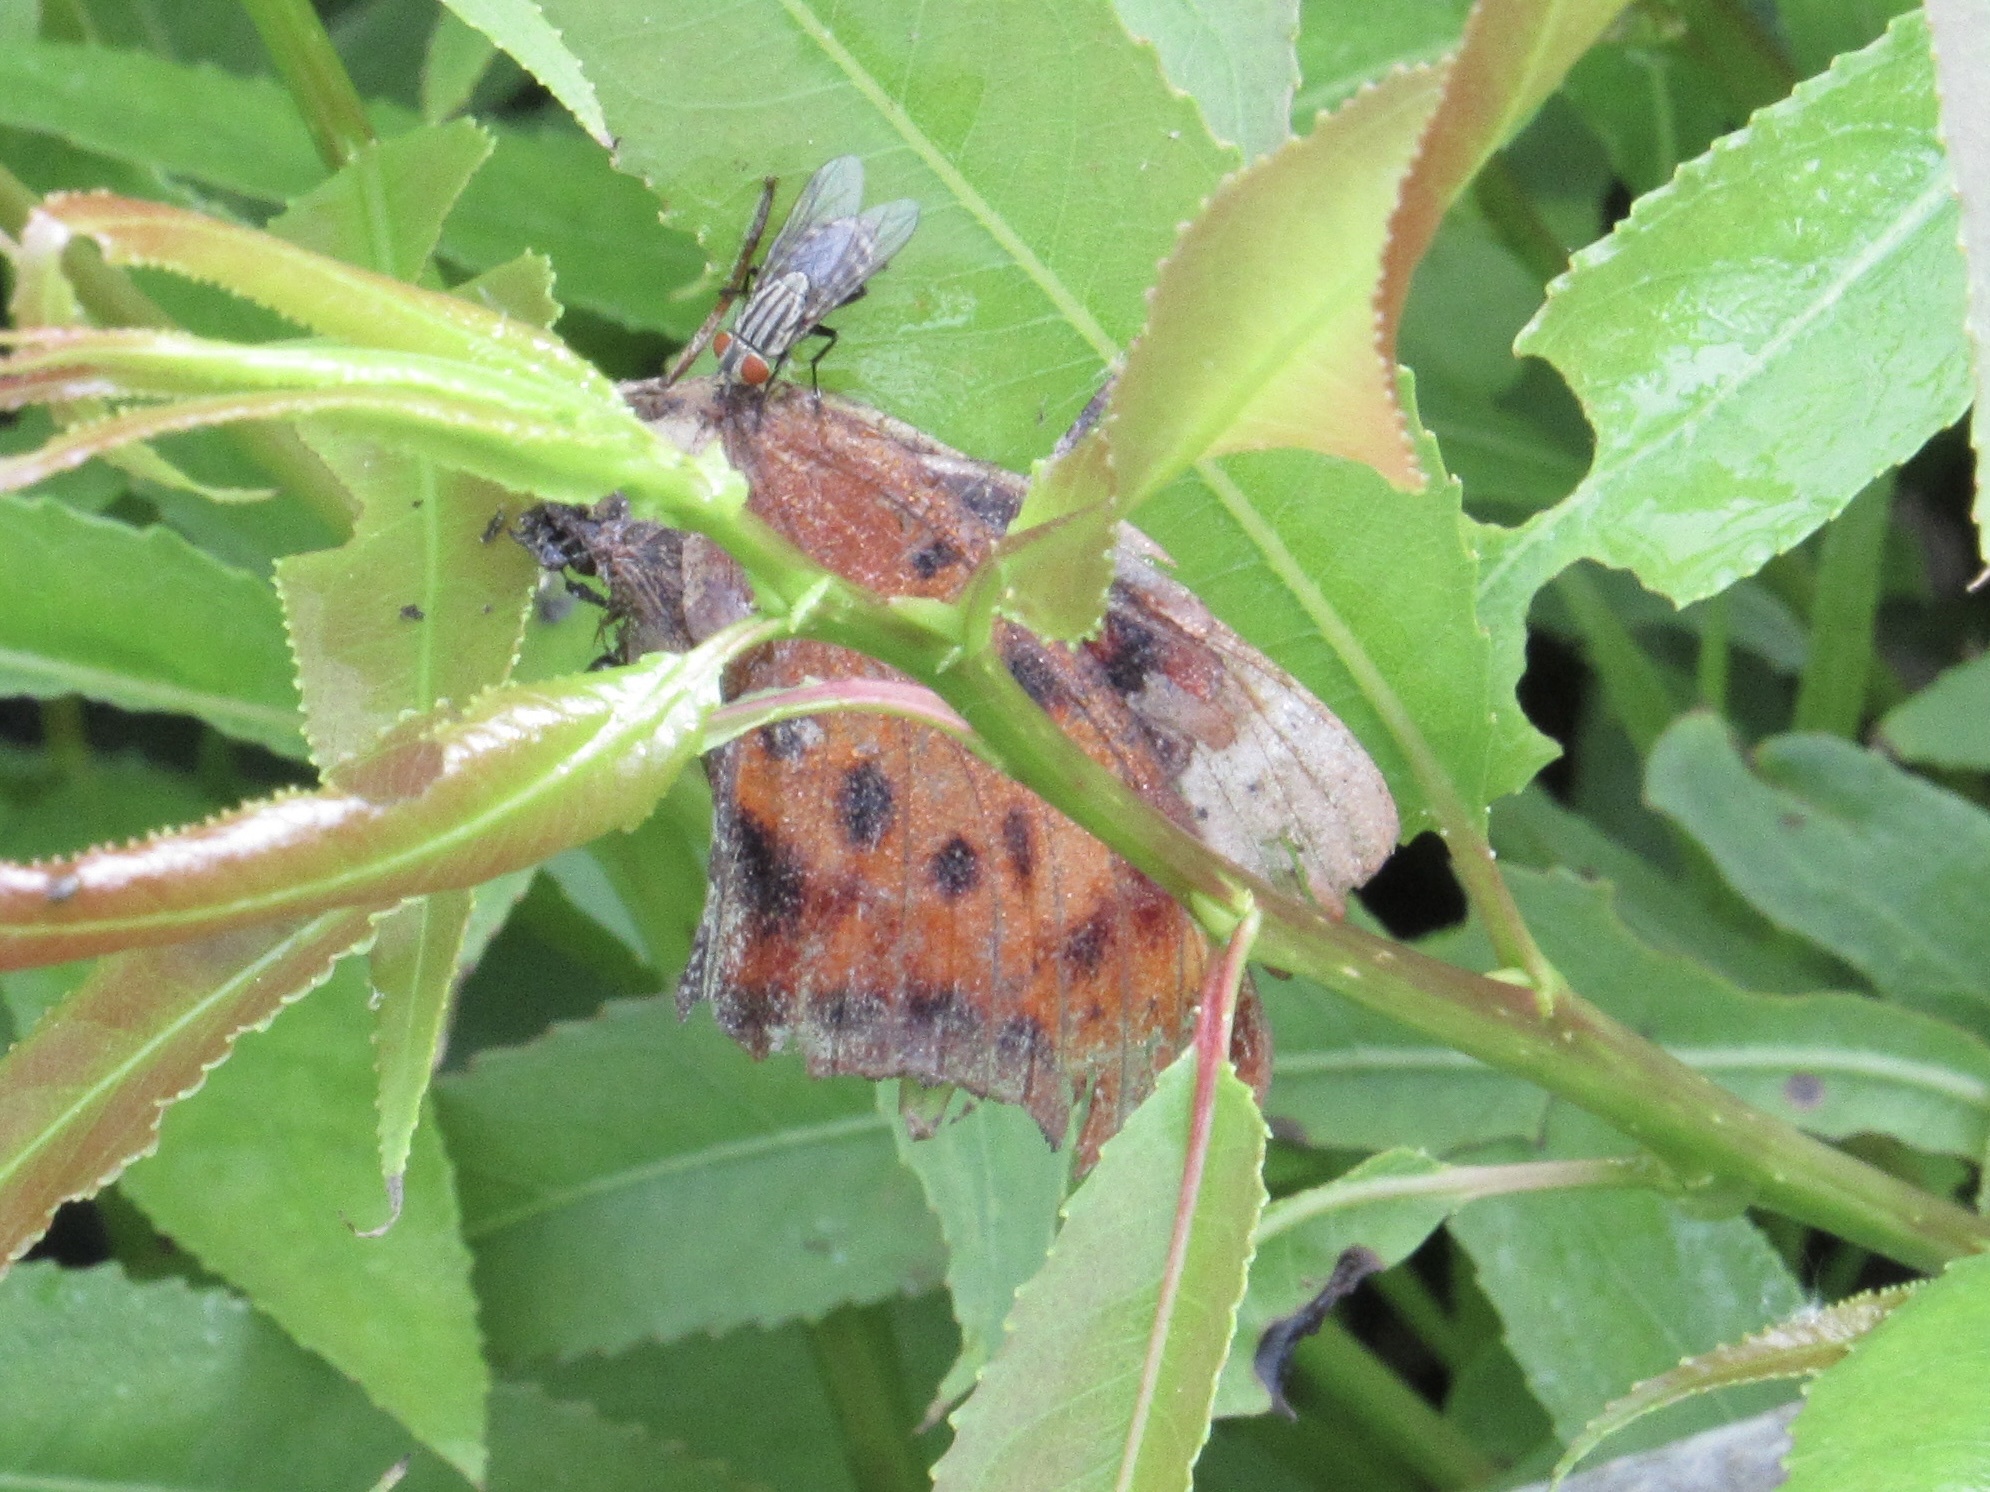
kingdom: Animalia
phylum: Arthropoda
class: Insecta
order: Lepidoptera
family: Nymphalidae
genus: Polygonia
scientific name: Polygonia interrogationis
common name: Question mark
